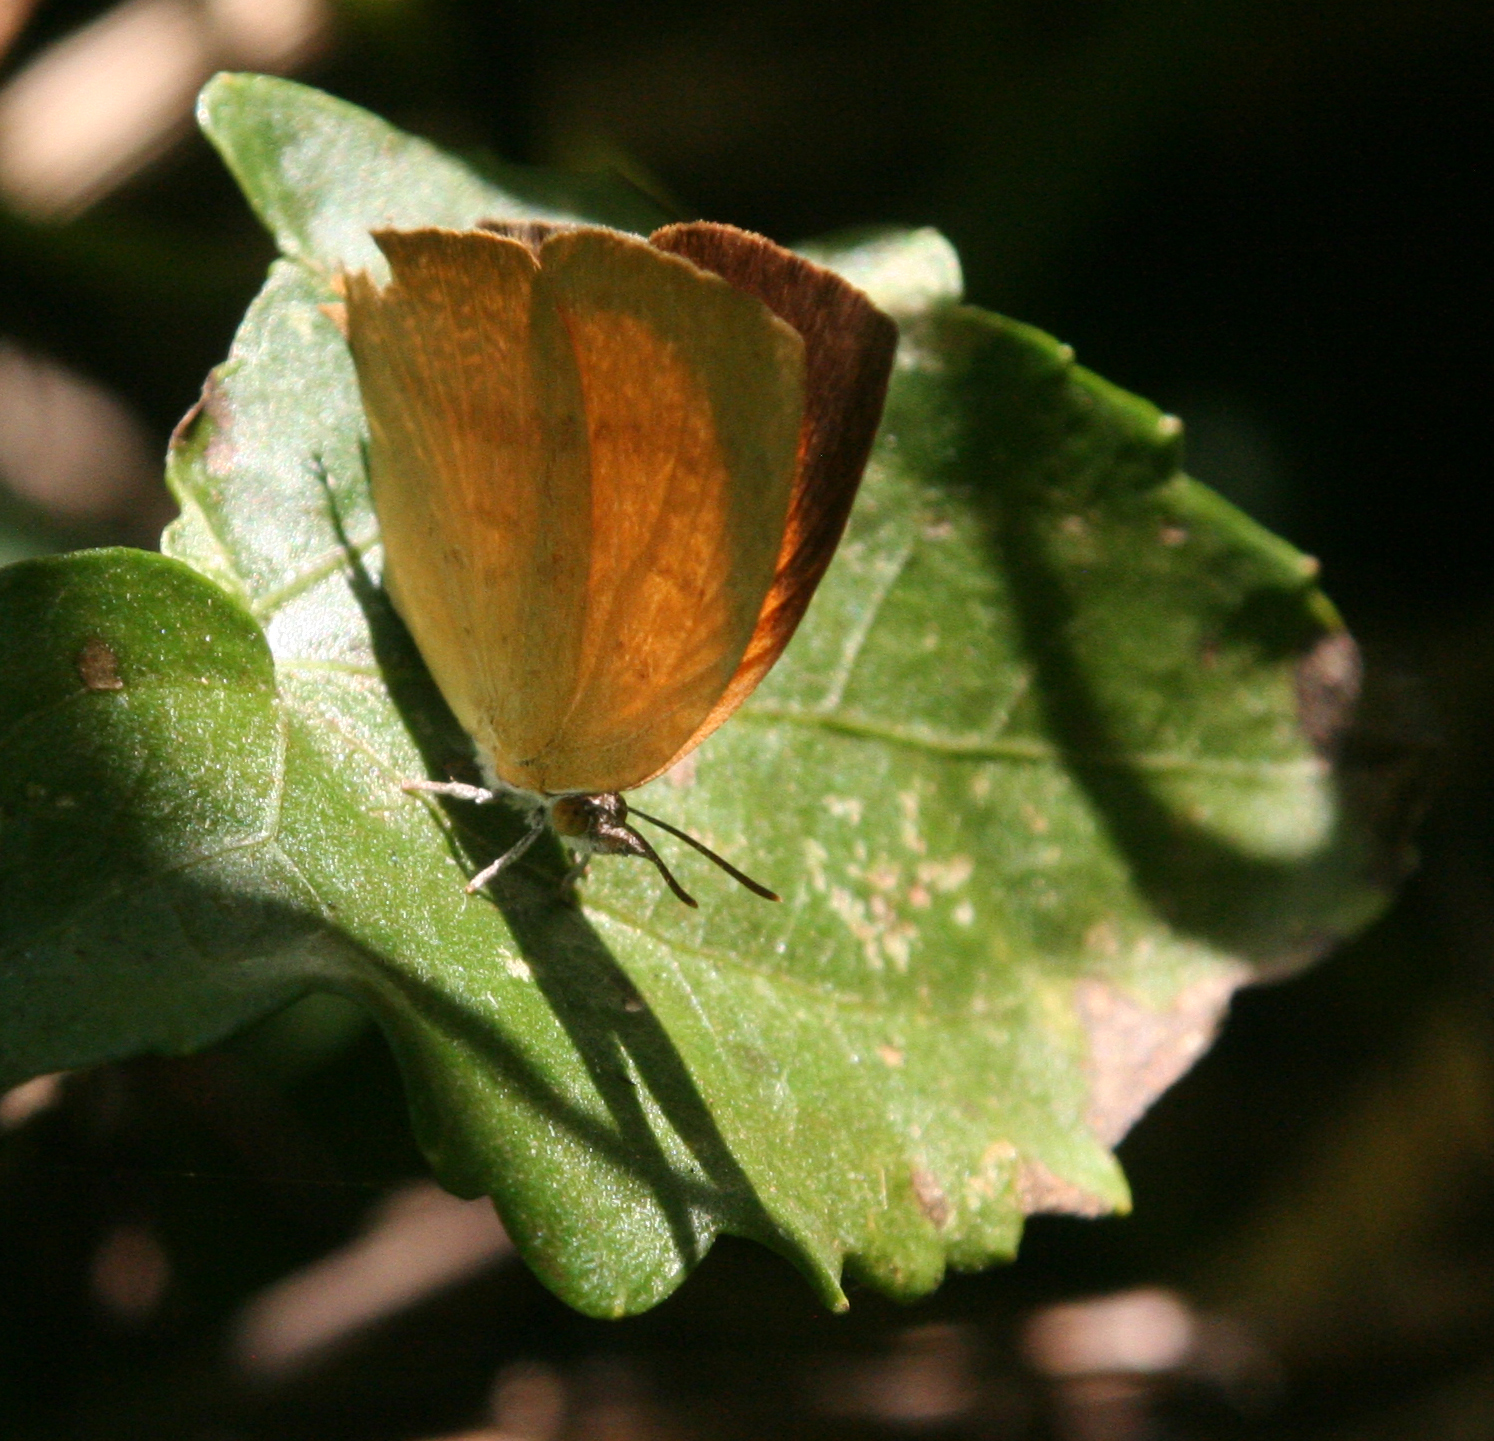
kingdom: Animalia
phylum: Arthropoda
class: Insecta
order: Lepidoptera
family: Lycaenidae
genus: Loxura
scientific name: Loxura atymnus
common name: Common yamfly
